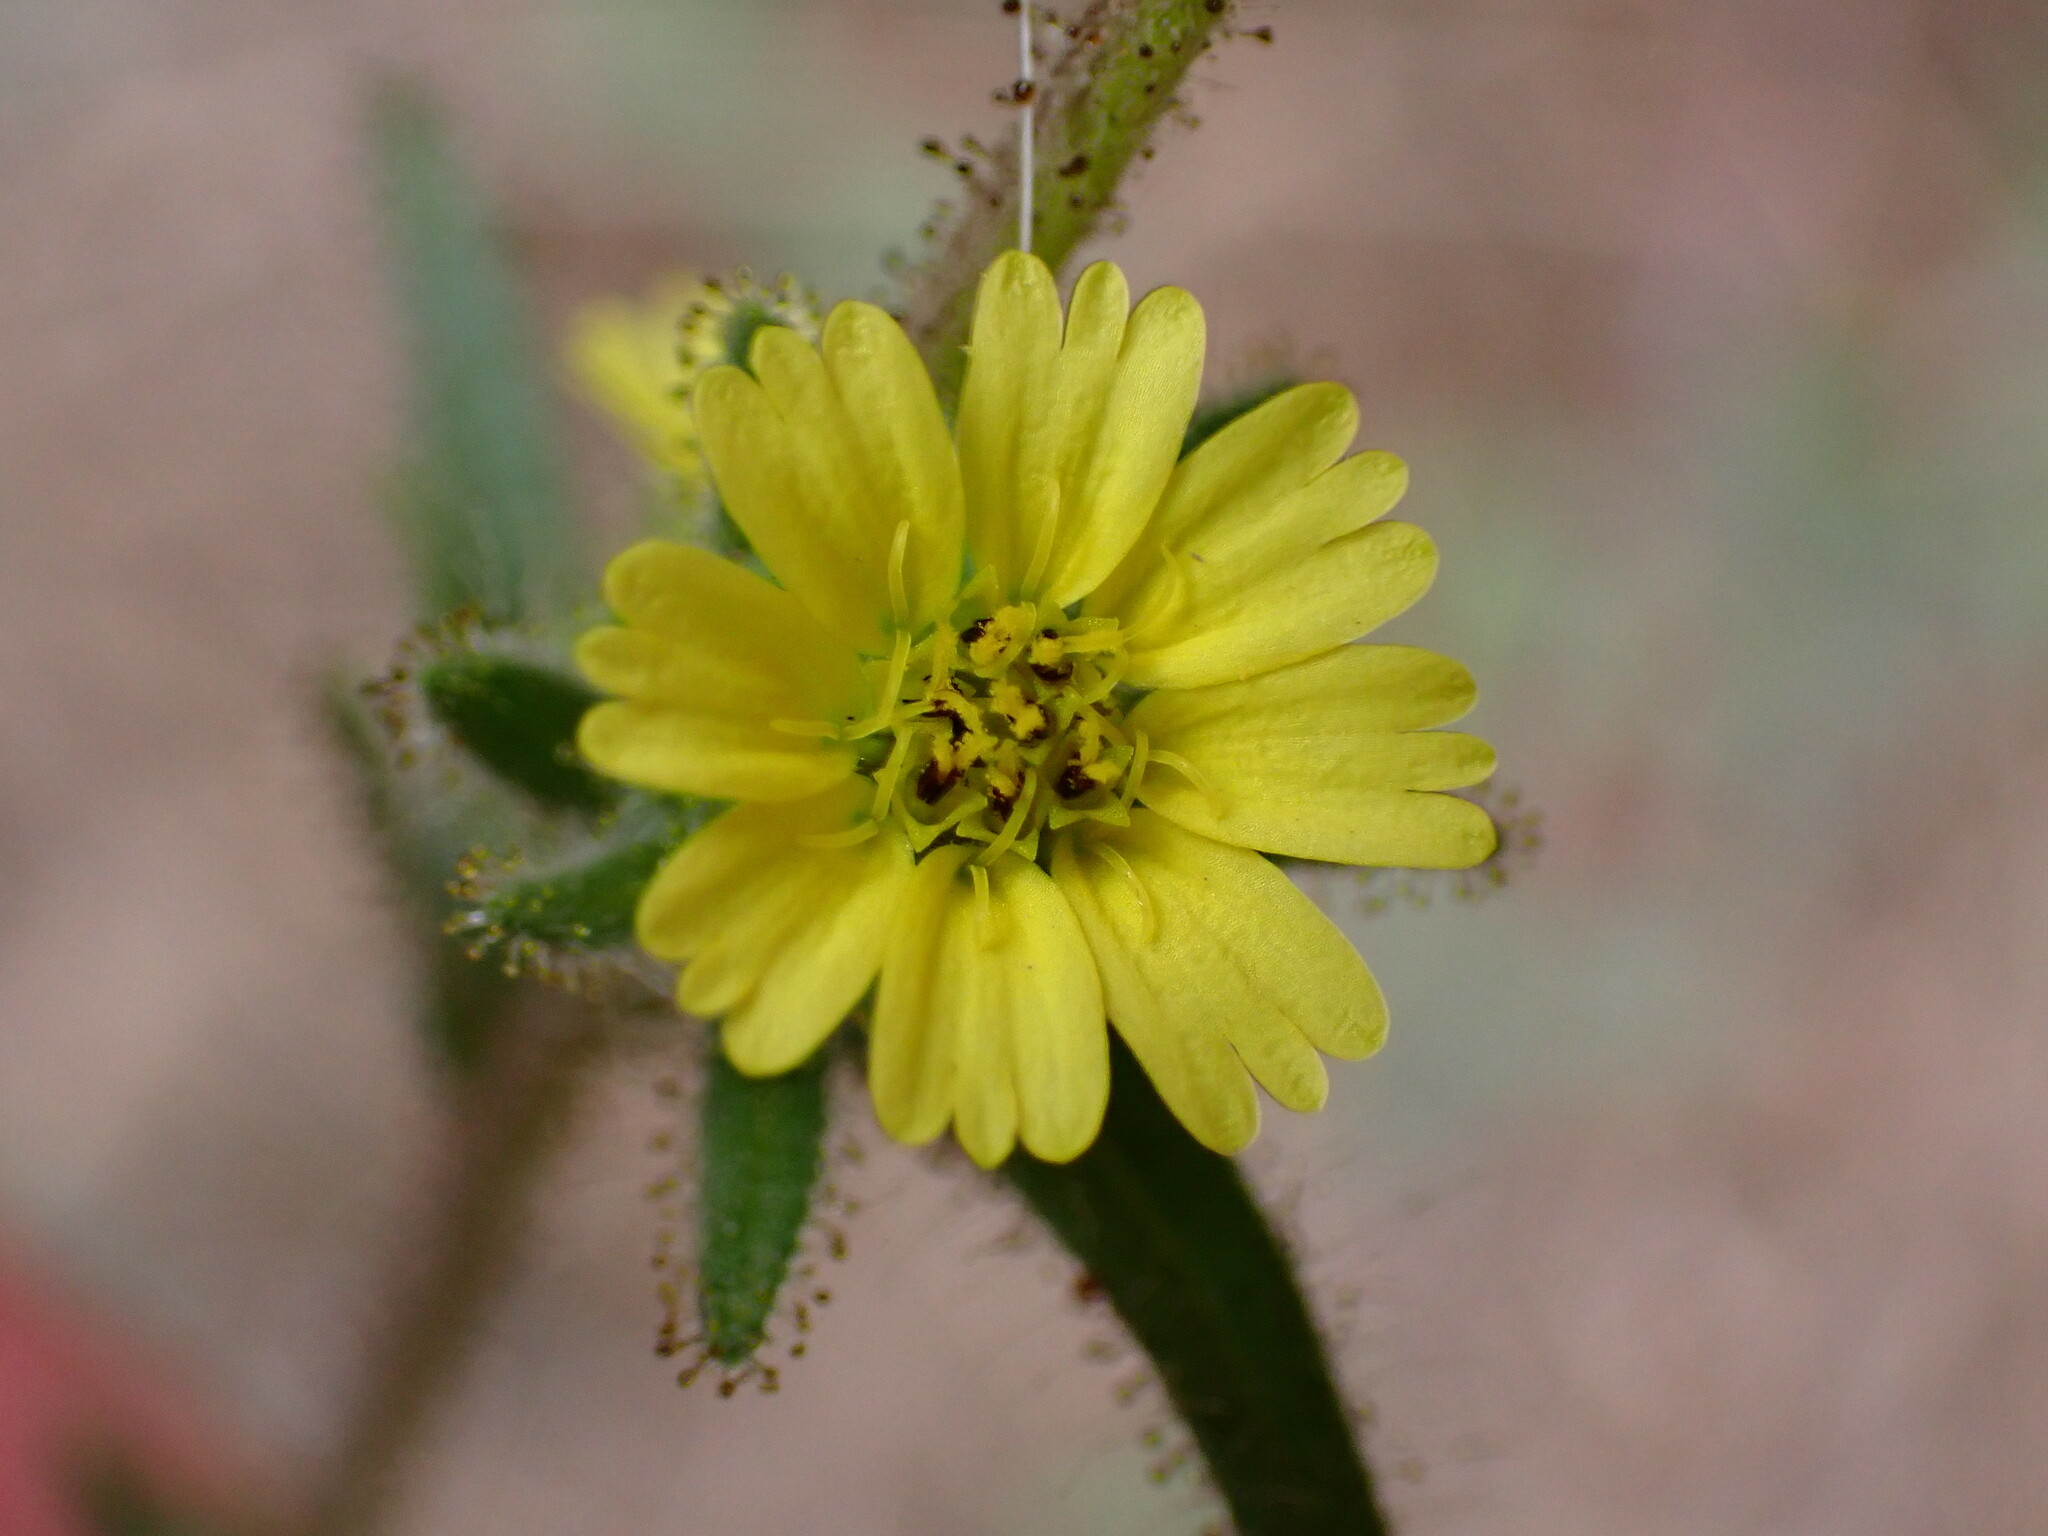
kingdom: Plantae
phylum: Tracheophyta
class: Magnoliopsida
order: Asterales
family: Asteraceae
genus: Madia
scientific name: Madia sativa
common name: Coast tarweed
